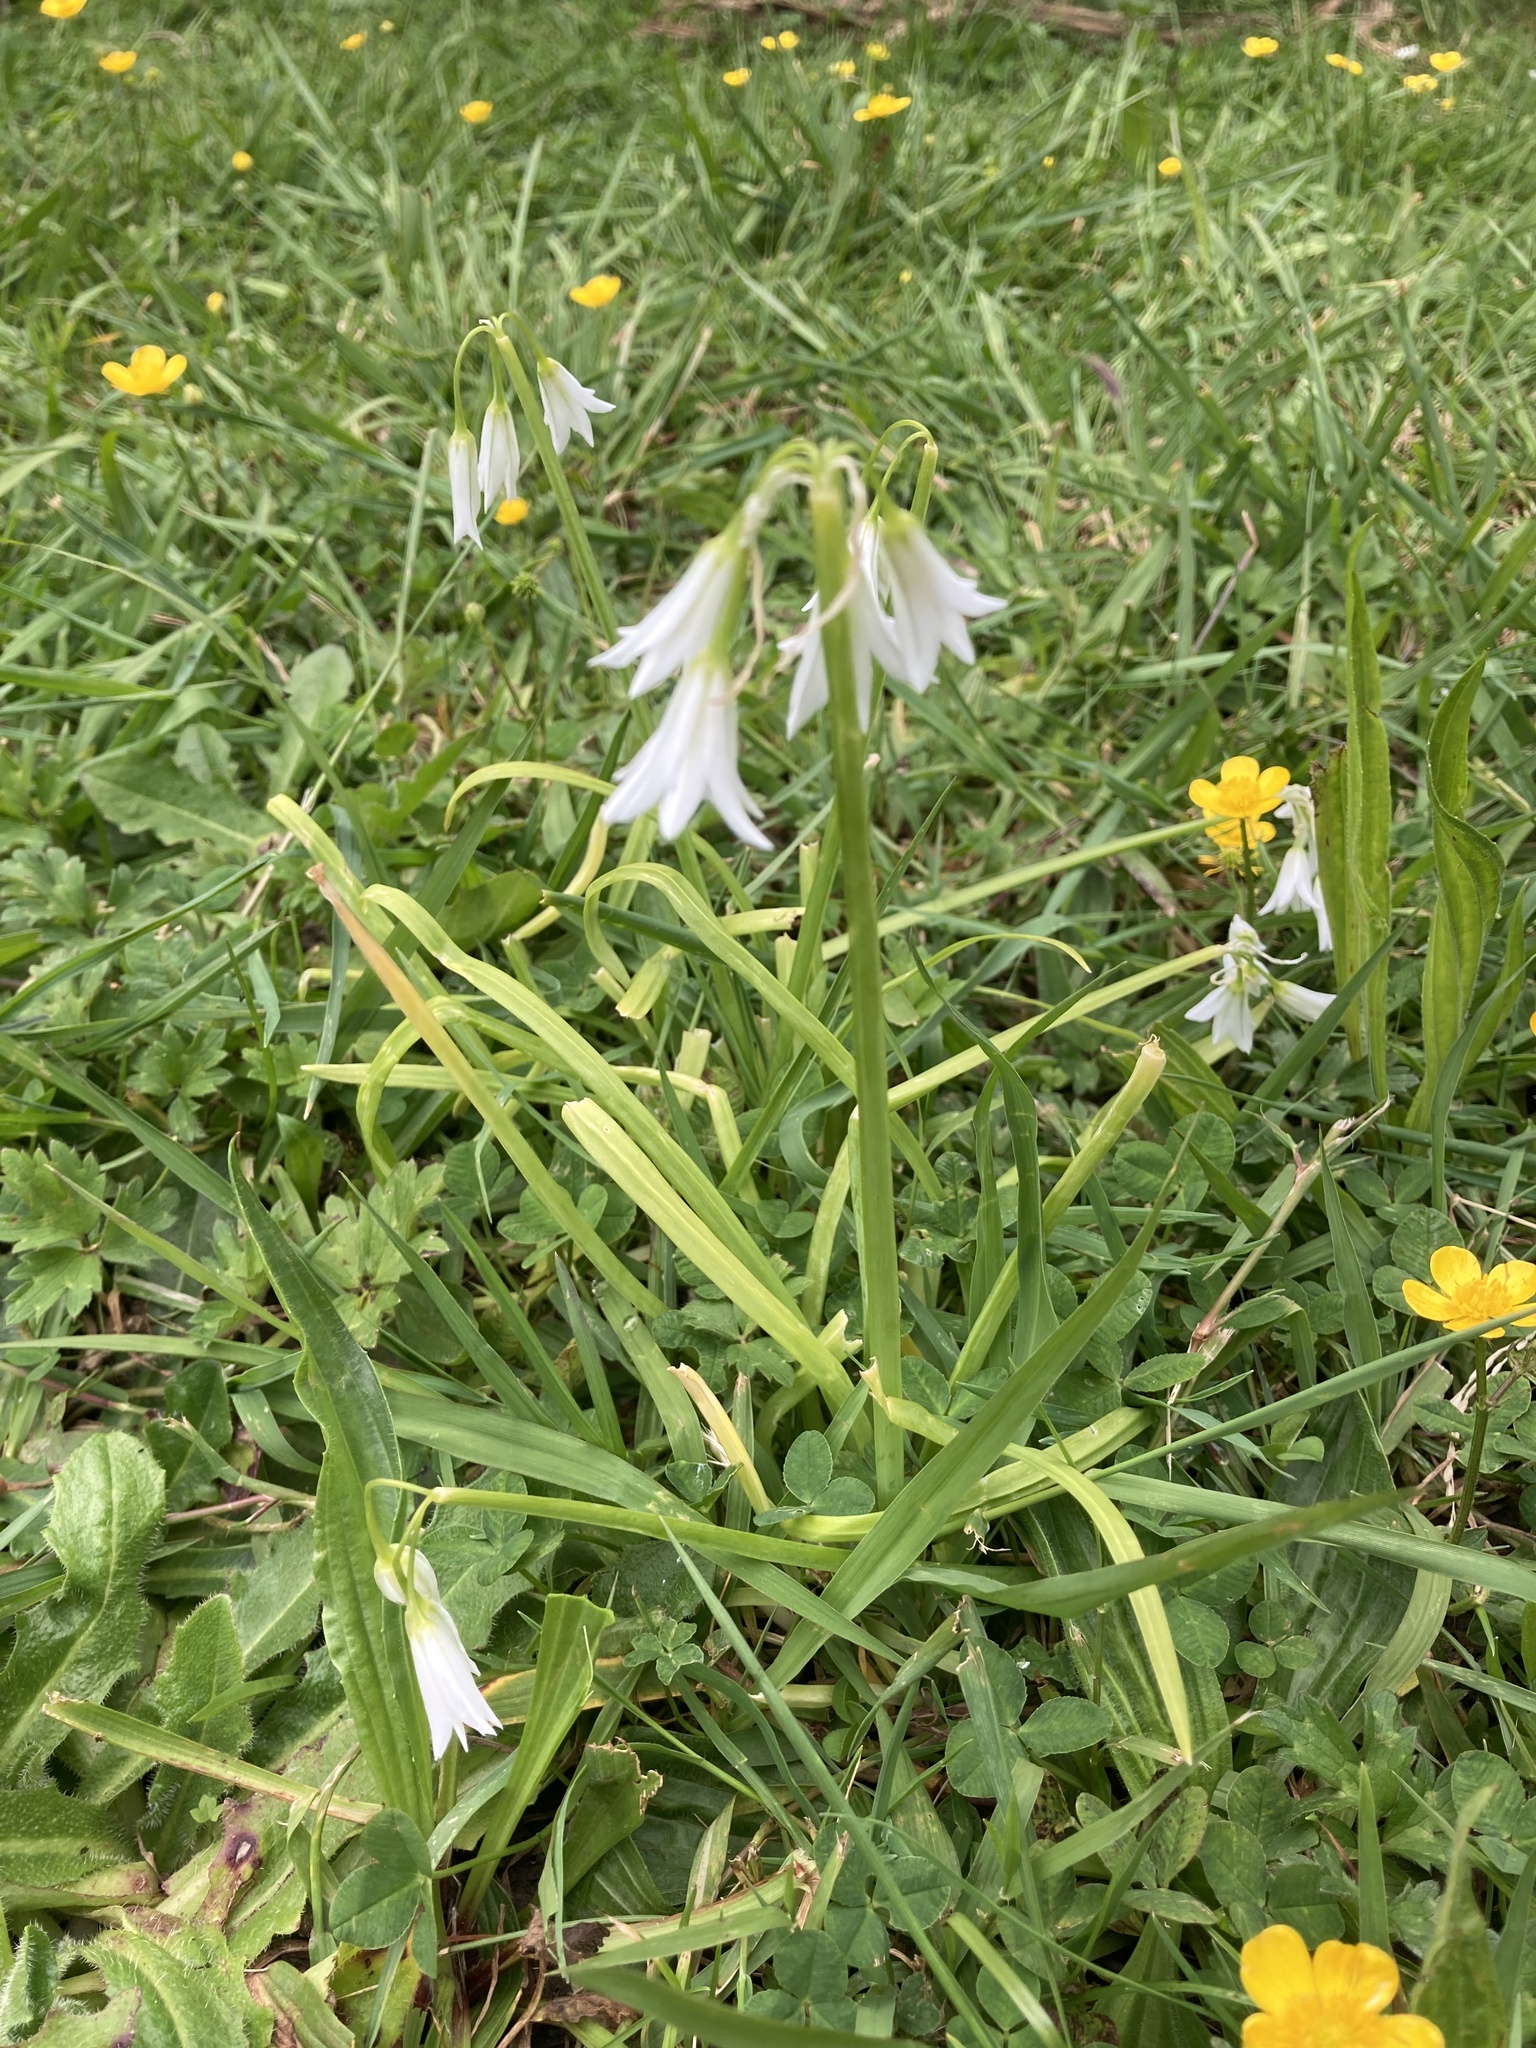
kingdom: Plantae
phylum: Tracheophyta
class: Liliopsida
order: Asparagales
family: Amaryllidaceae
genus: Allium
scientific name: Allium triquetrum
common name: Three-cornered garlic
